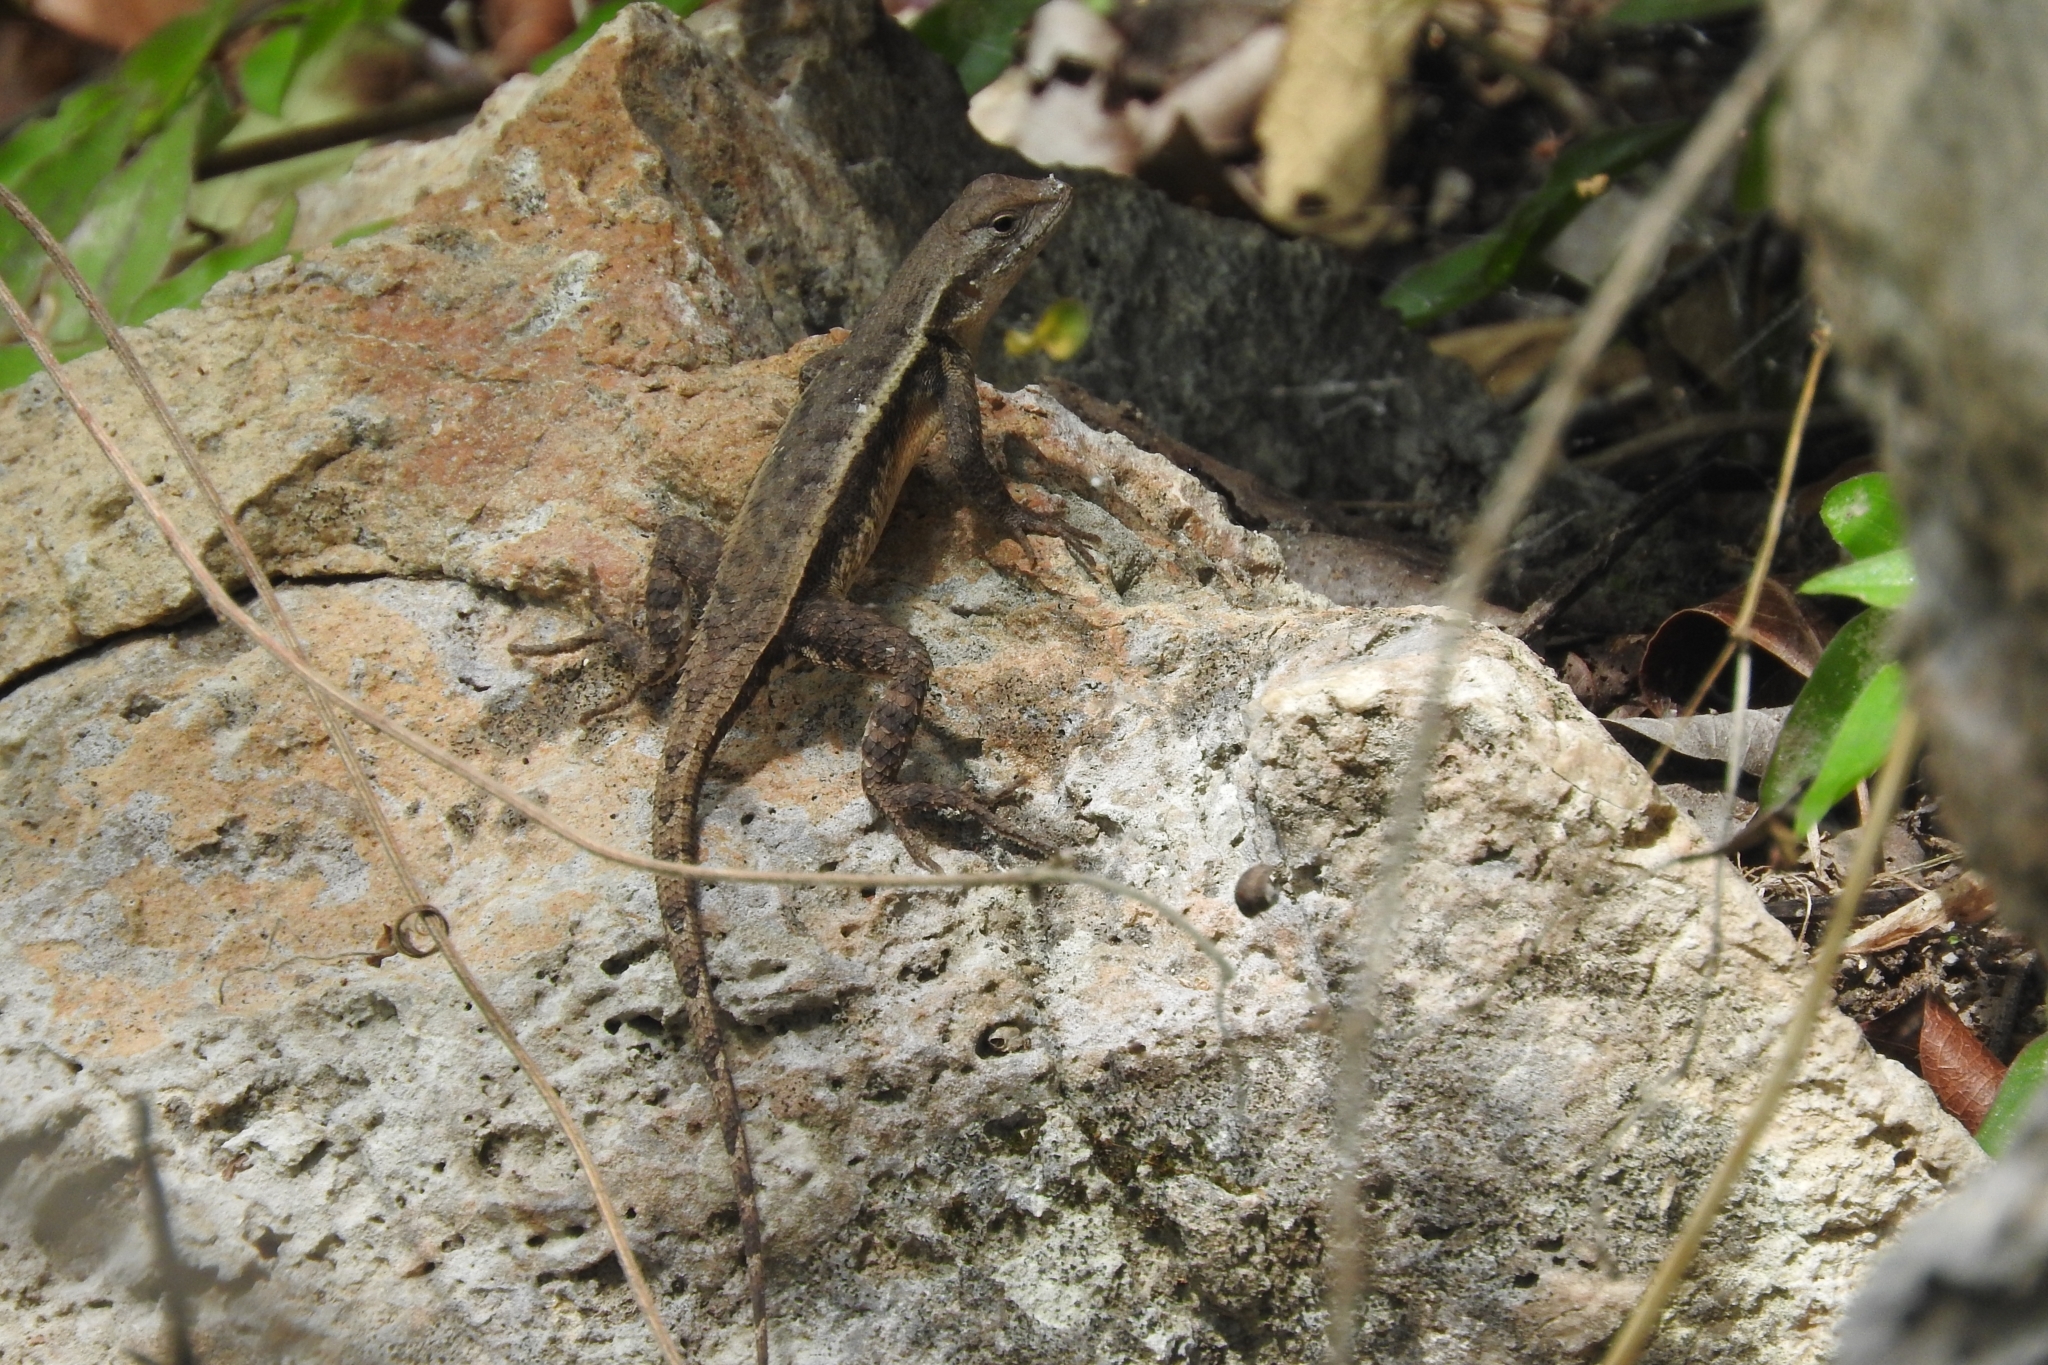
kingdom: Animalia
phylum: Chordata
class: Squamata
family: Phrynosomatidae
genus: Sceloporus
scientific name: Sceloporus chrysostictus
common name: Yellow-spotted spiny lizard
